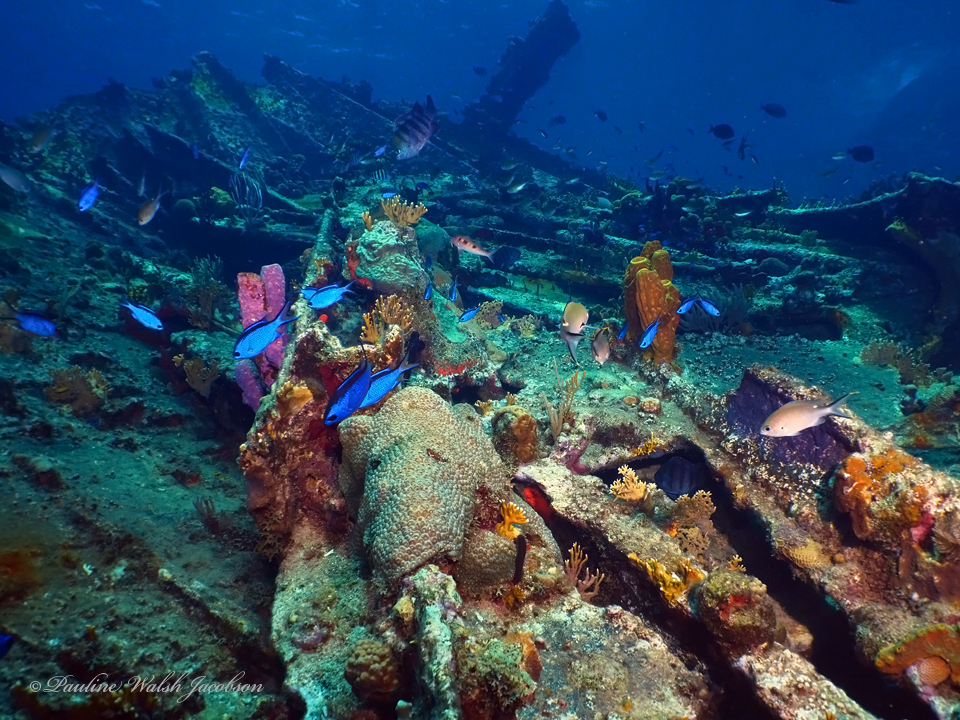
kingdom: Animalia
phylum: Chordata
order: Perciformes
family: Pomacentridae
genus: Chromis
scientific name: Chromis multilineata
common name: Brown chromis
